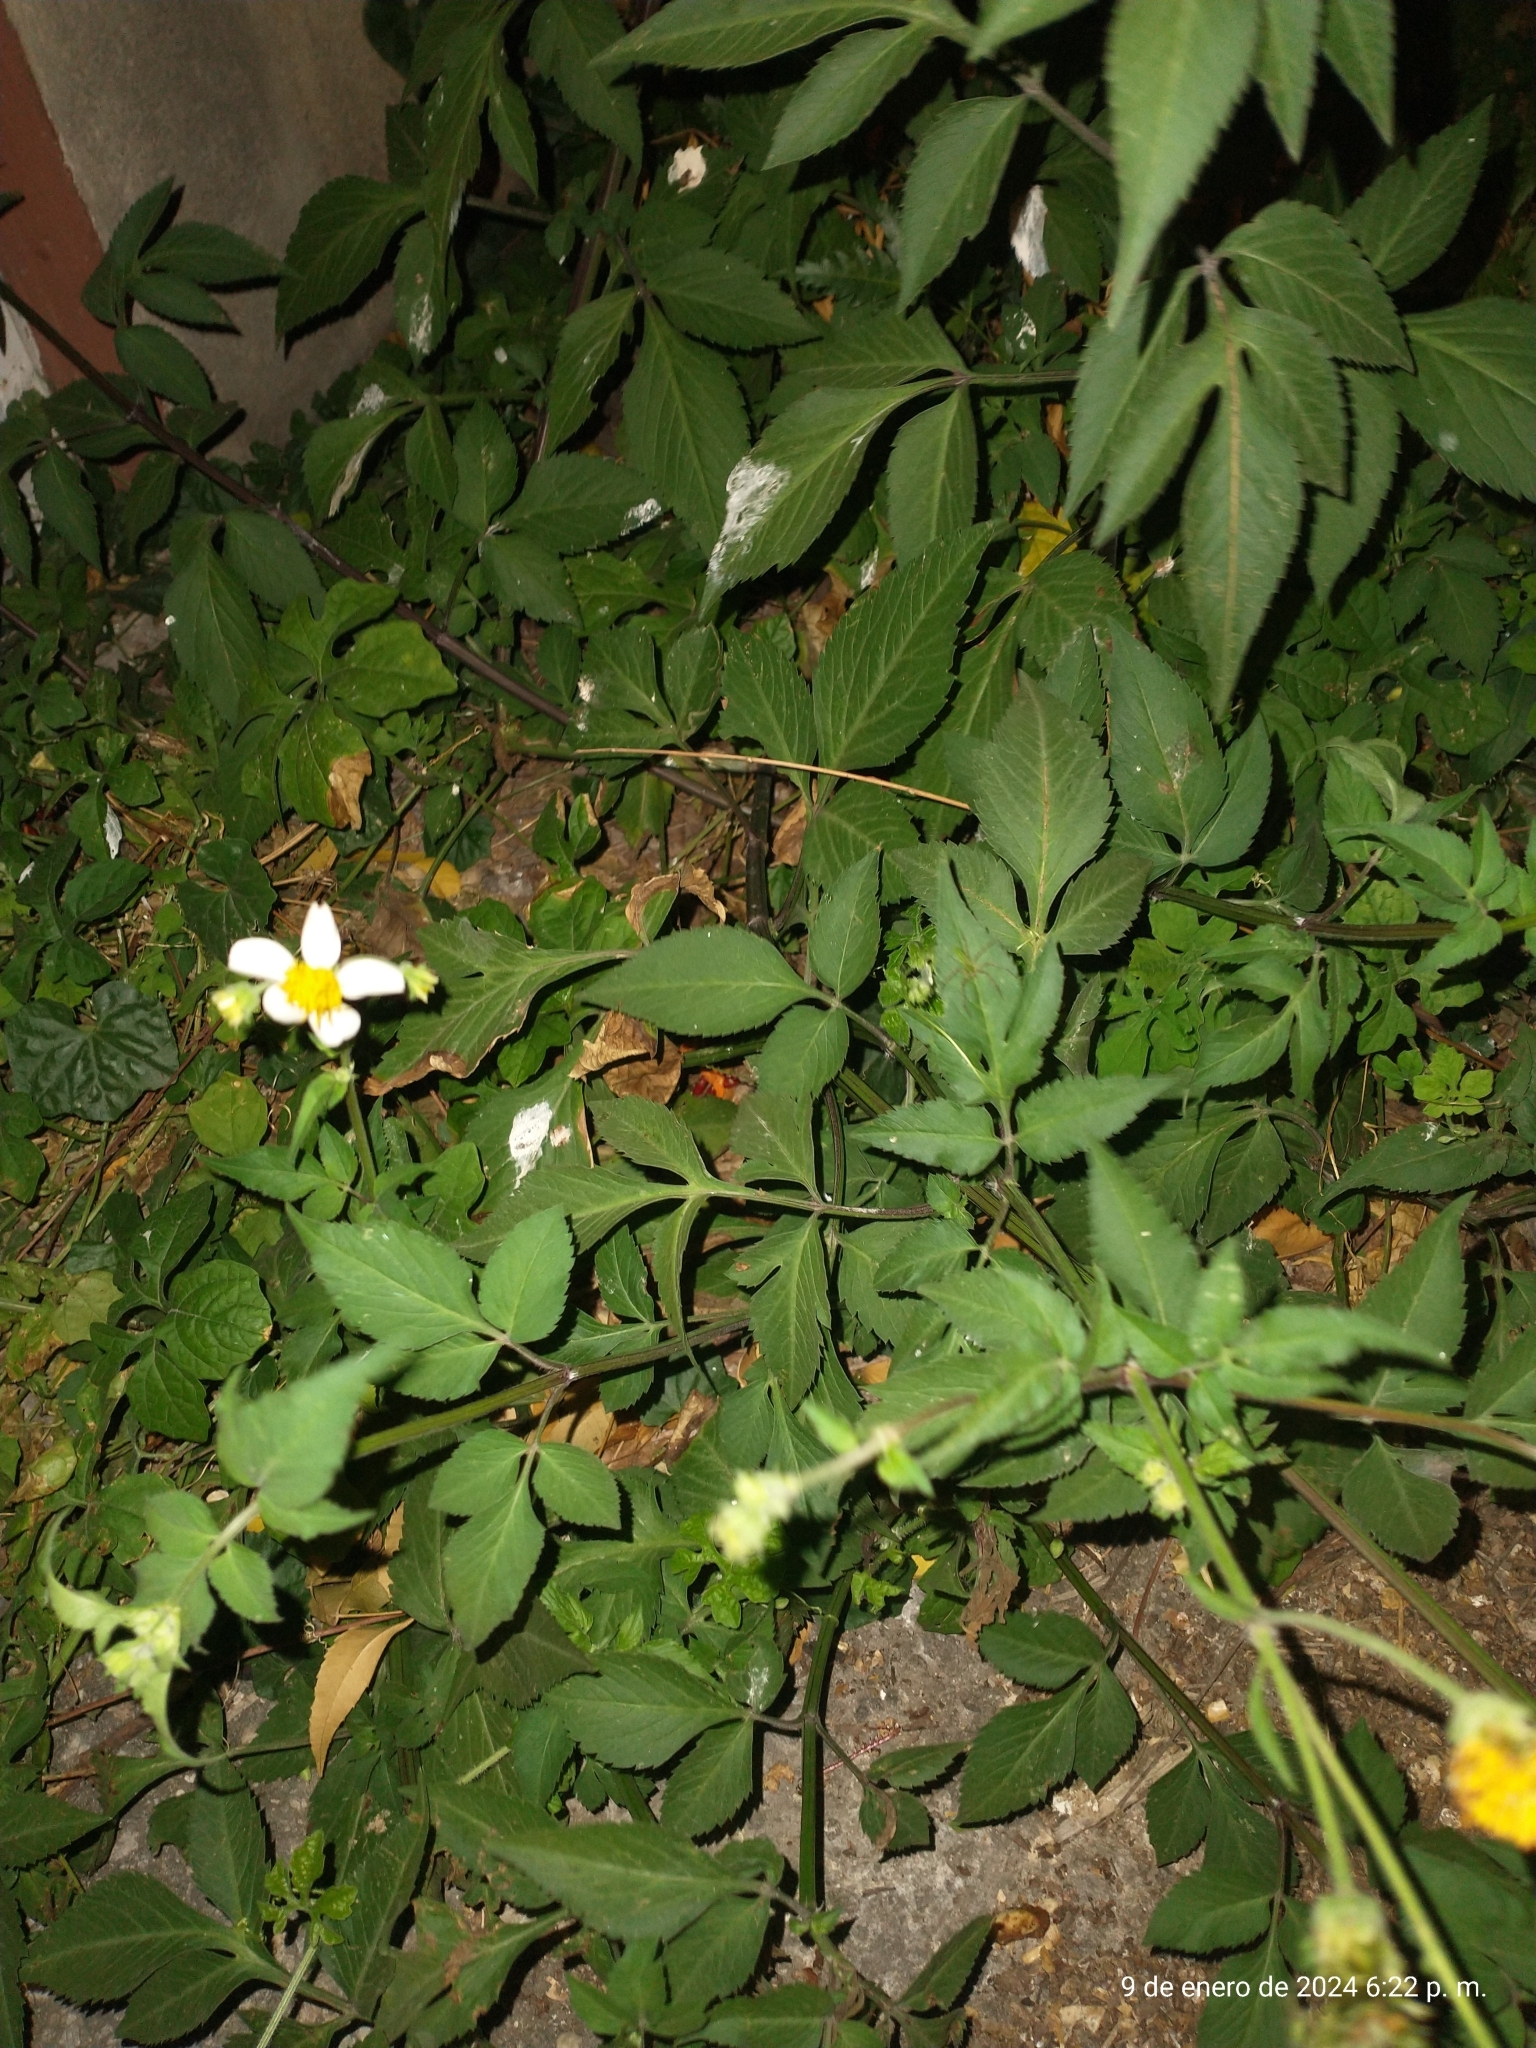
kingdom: Plantae
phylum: Tracheophyta
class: Magnoliopsida
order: Asterales
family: Asteraceae
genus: Bidens
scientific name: Bidens alba
